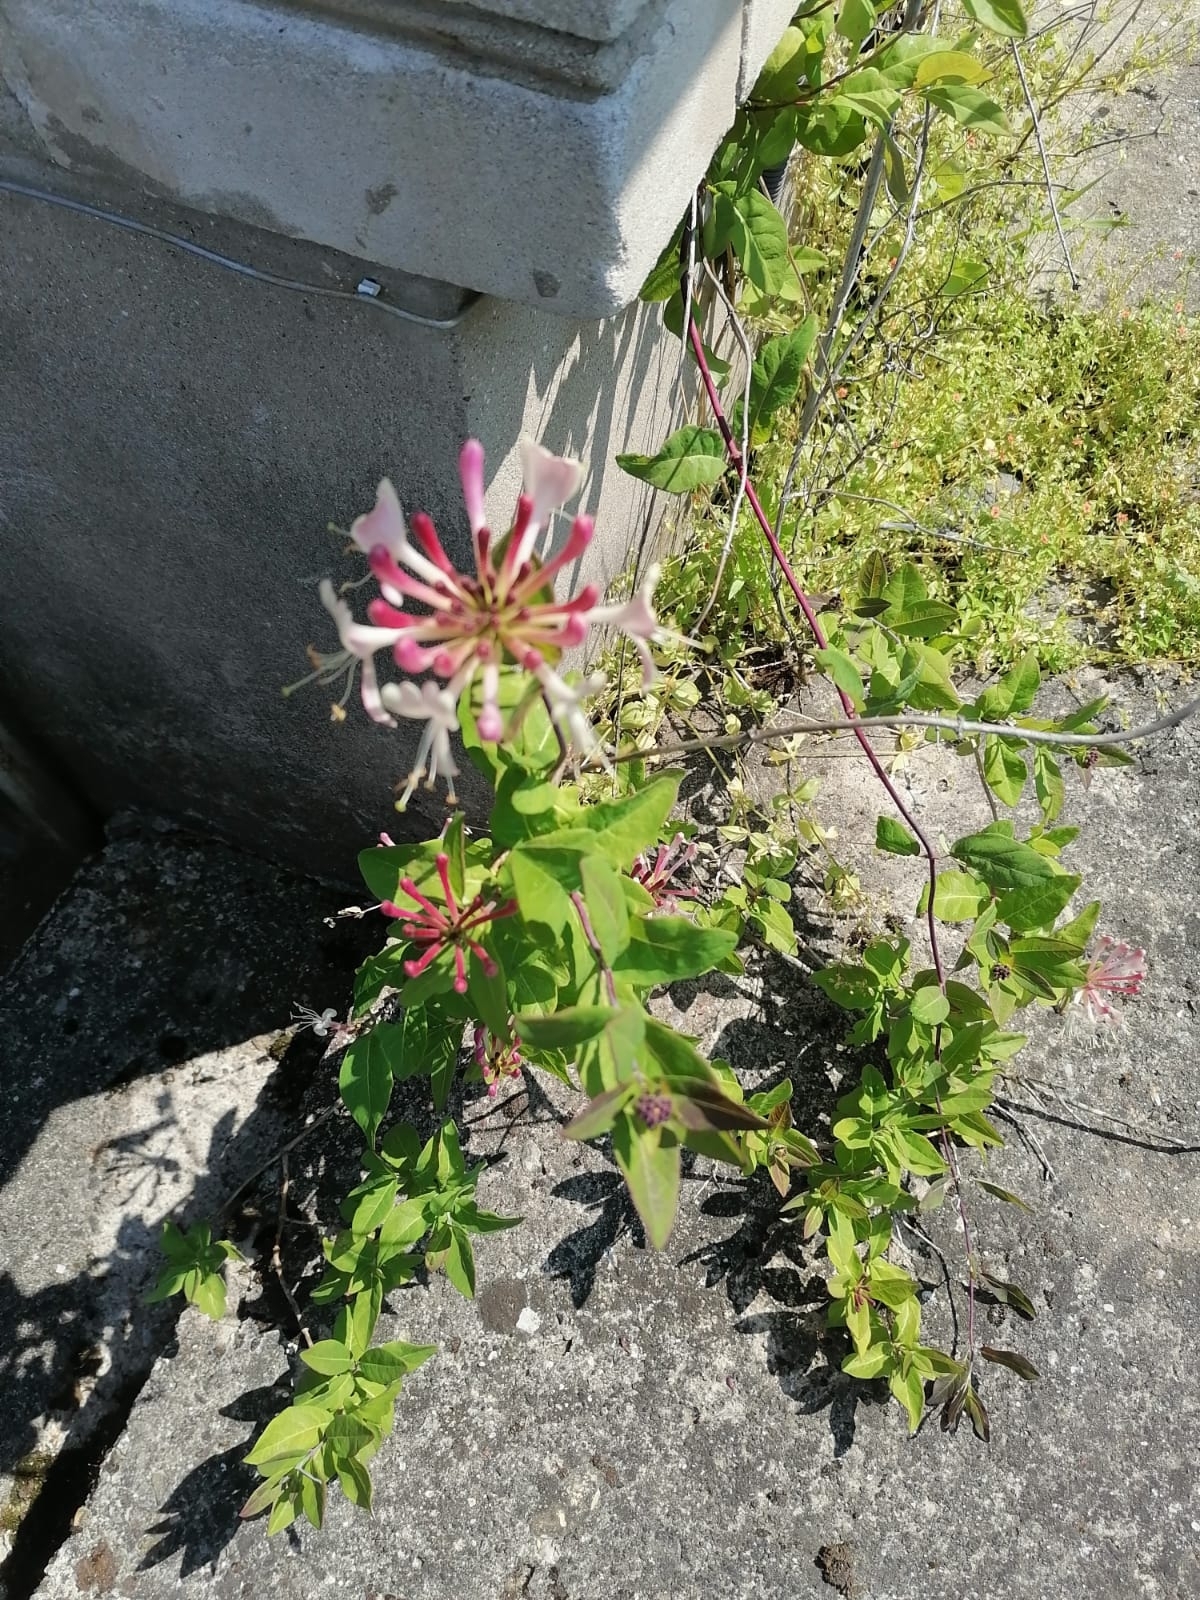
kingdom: Plantae
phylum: Tracheophyta
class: Magnoliopsida
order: Dipsacales
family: Caprifoliaceae
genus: Lonicera
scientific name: Lonicera periclymenum
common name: European honeysuckle
